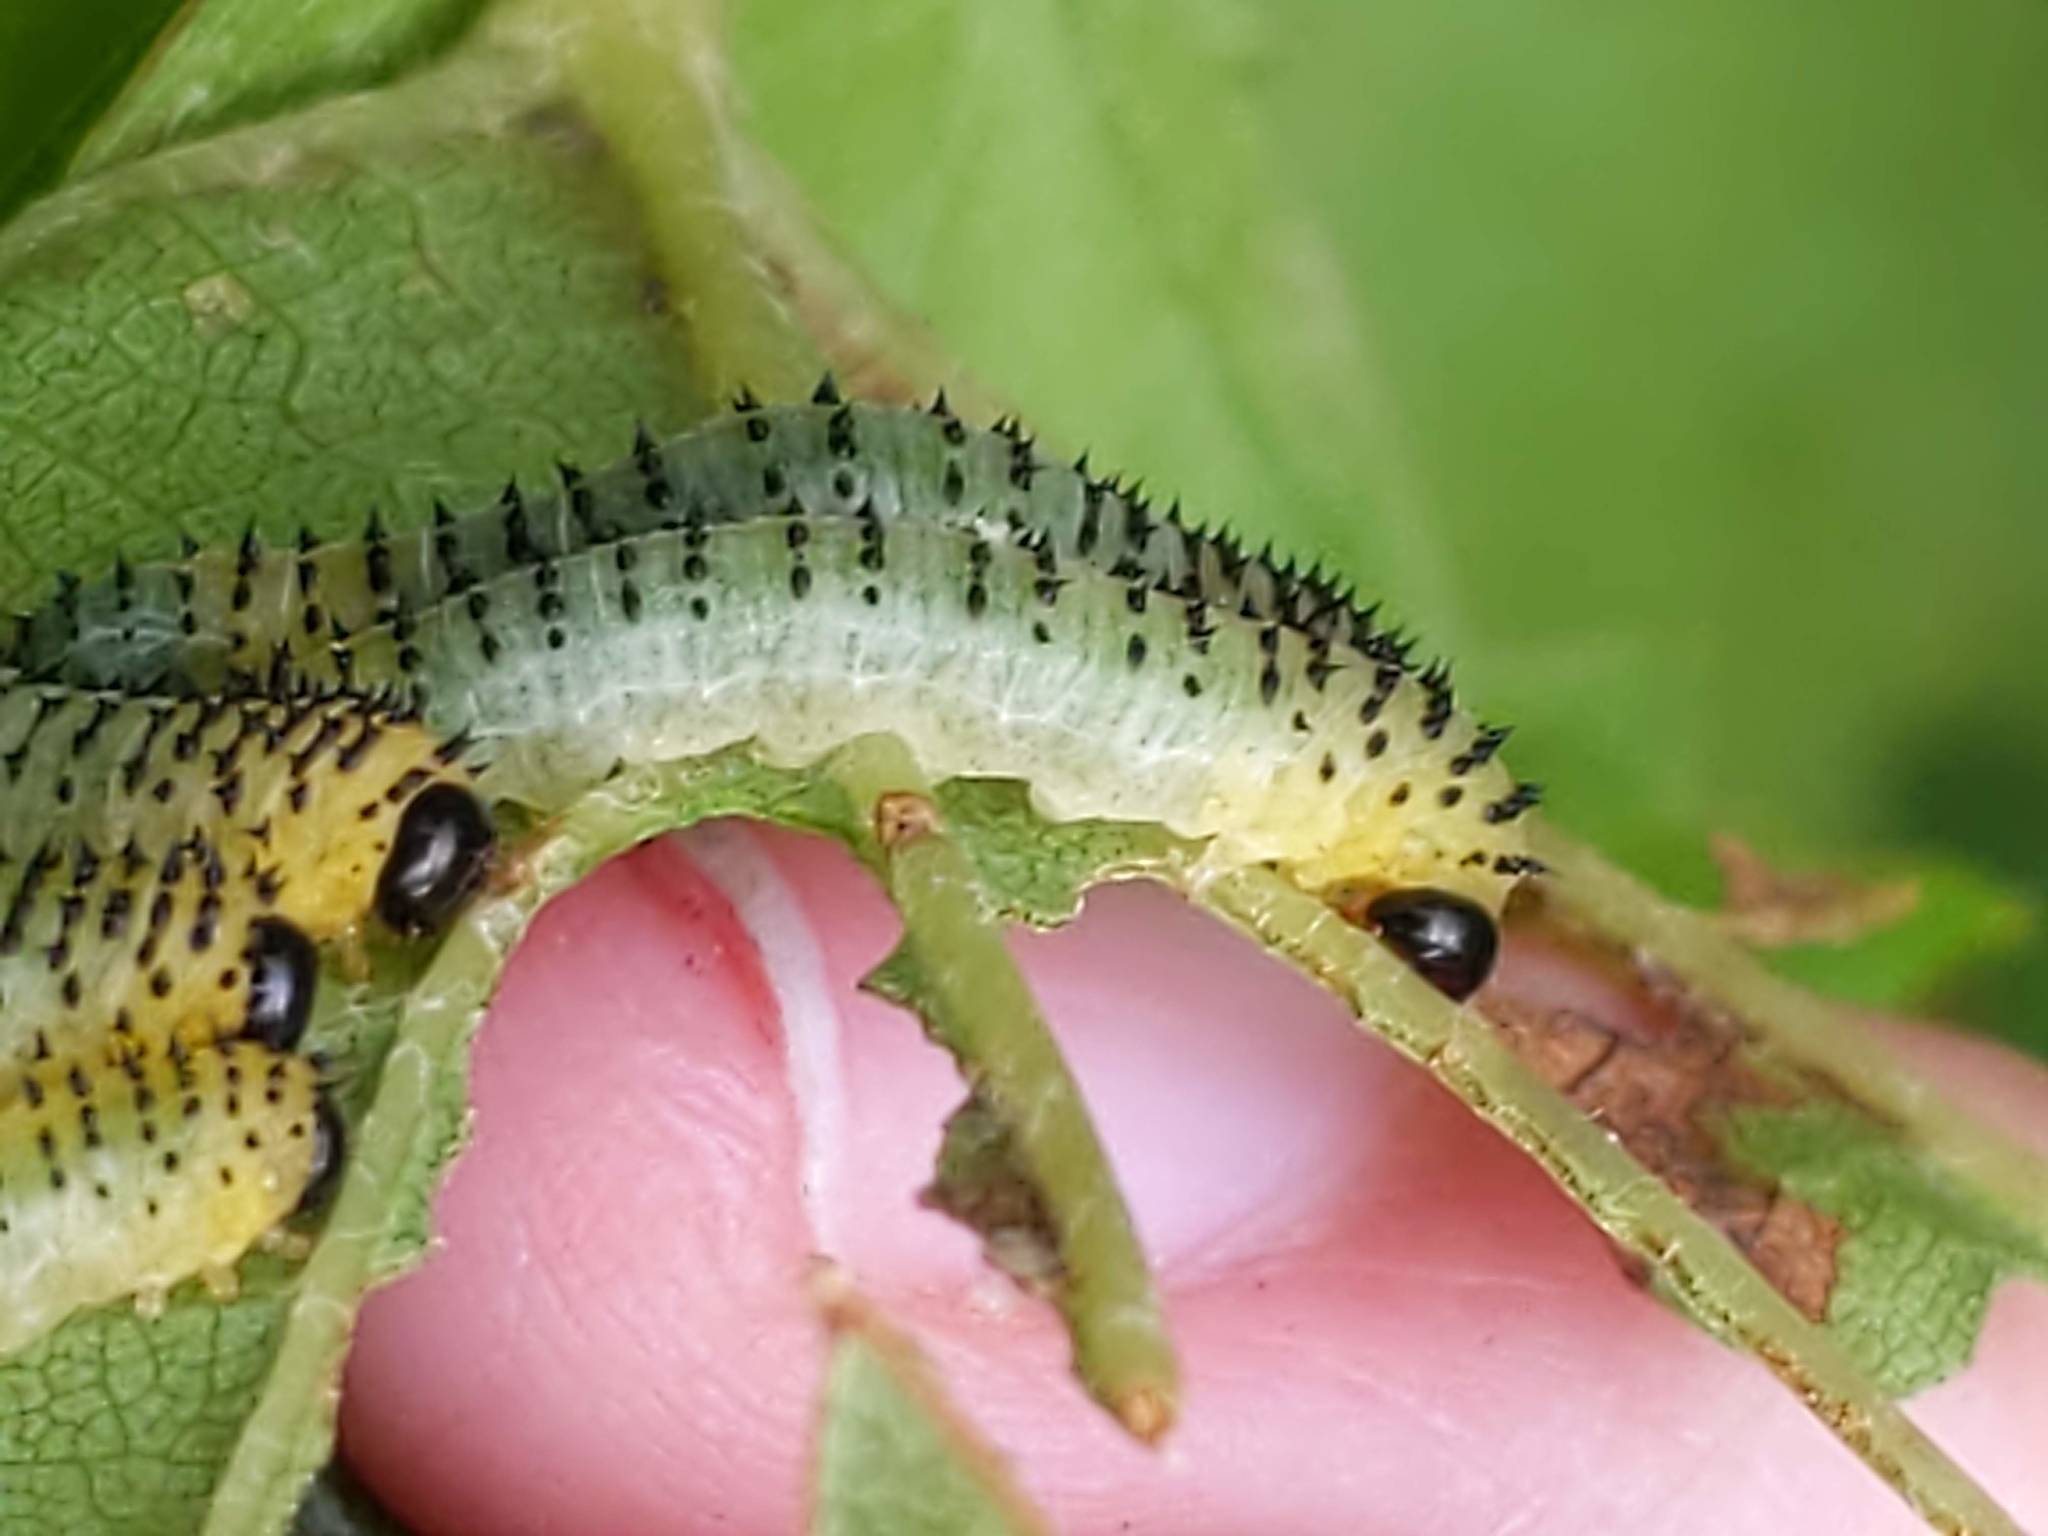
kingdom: Animalia
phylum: Arthropoda
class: Insecta
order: Hymenoptera
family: Tenthredinidae
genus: Waldheimia
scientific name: Waldheimia
